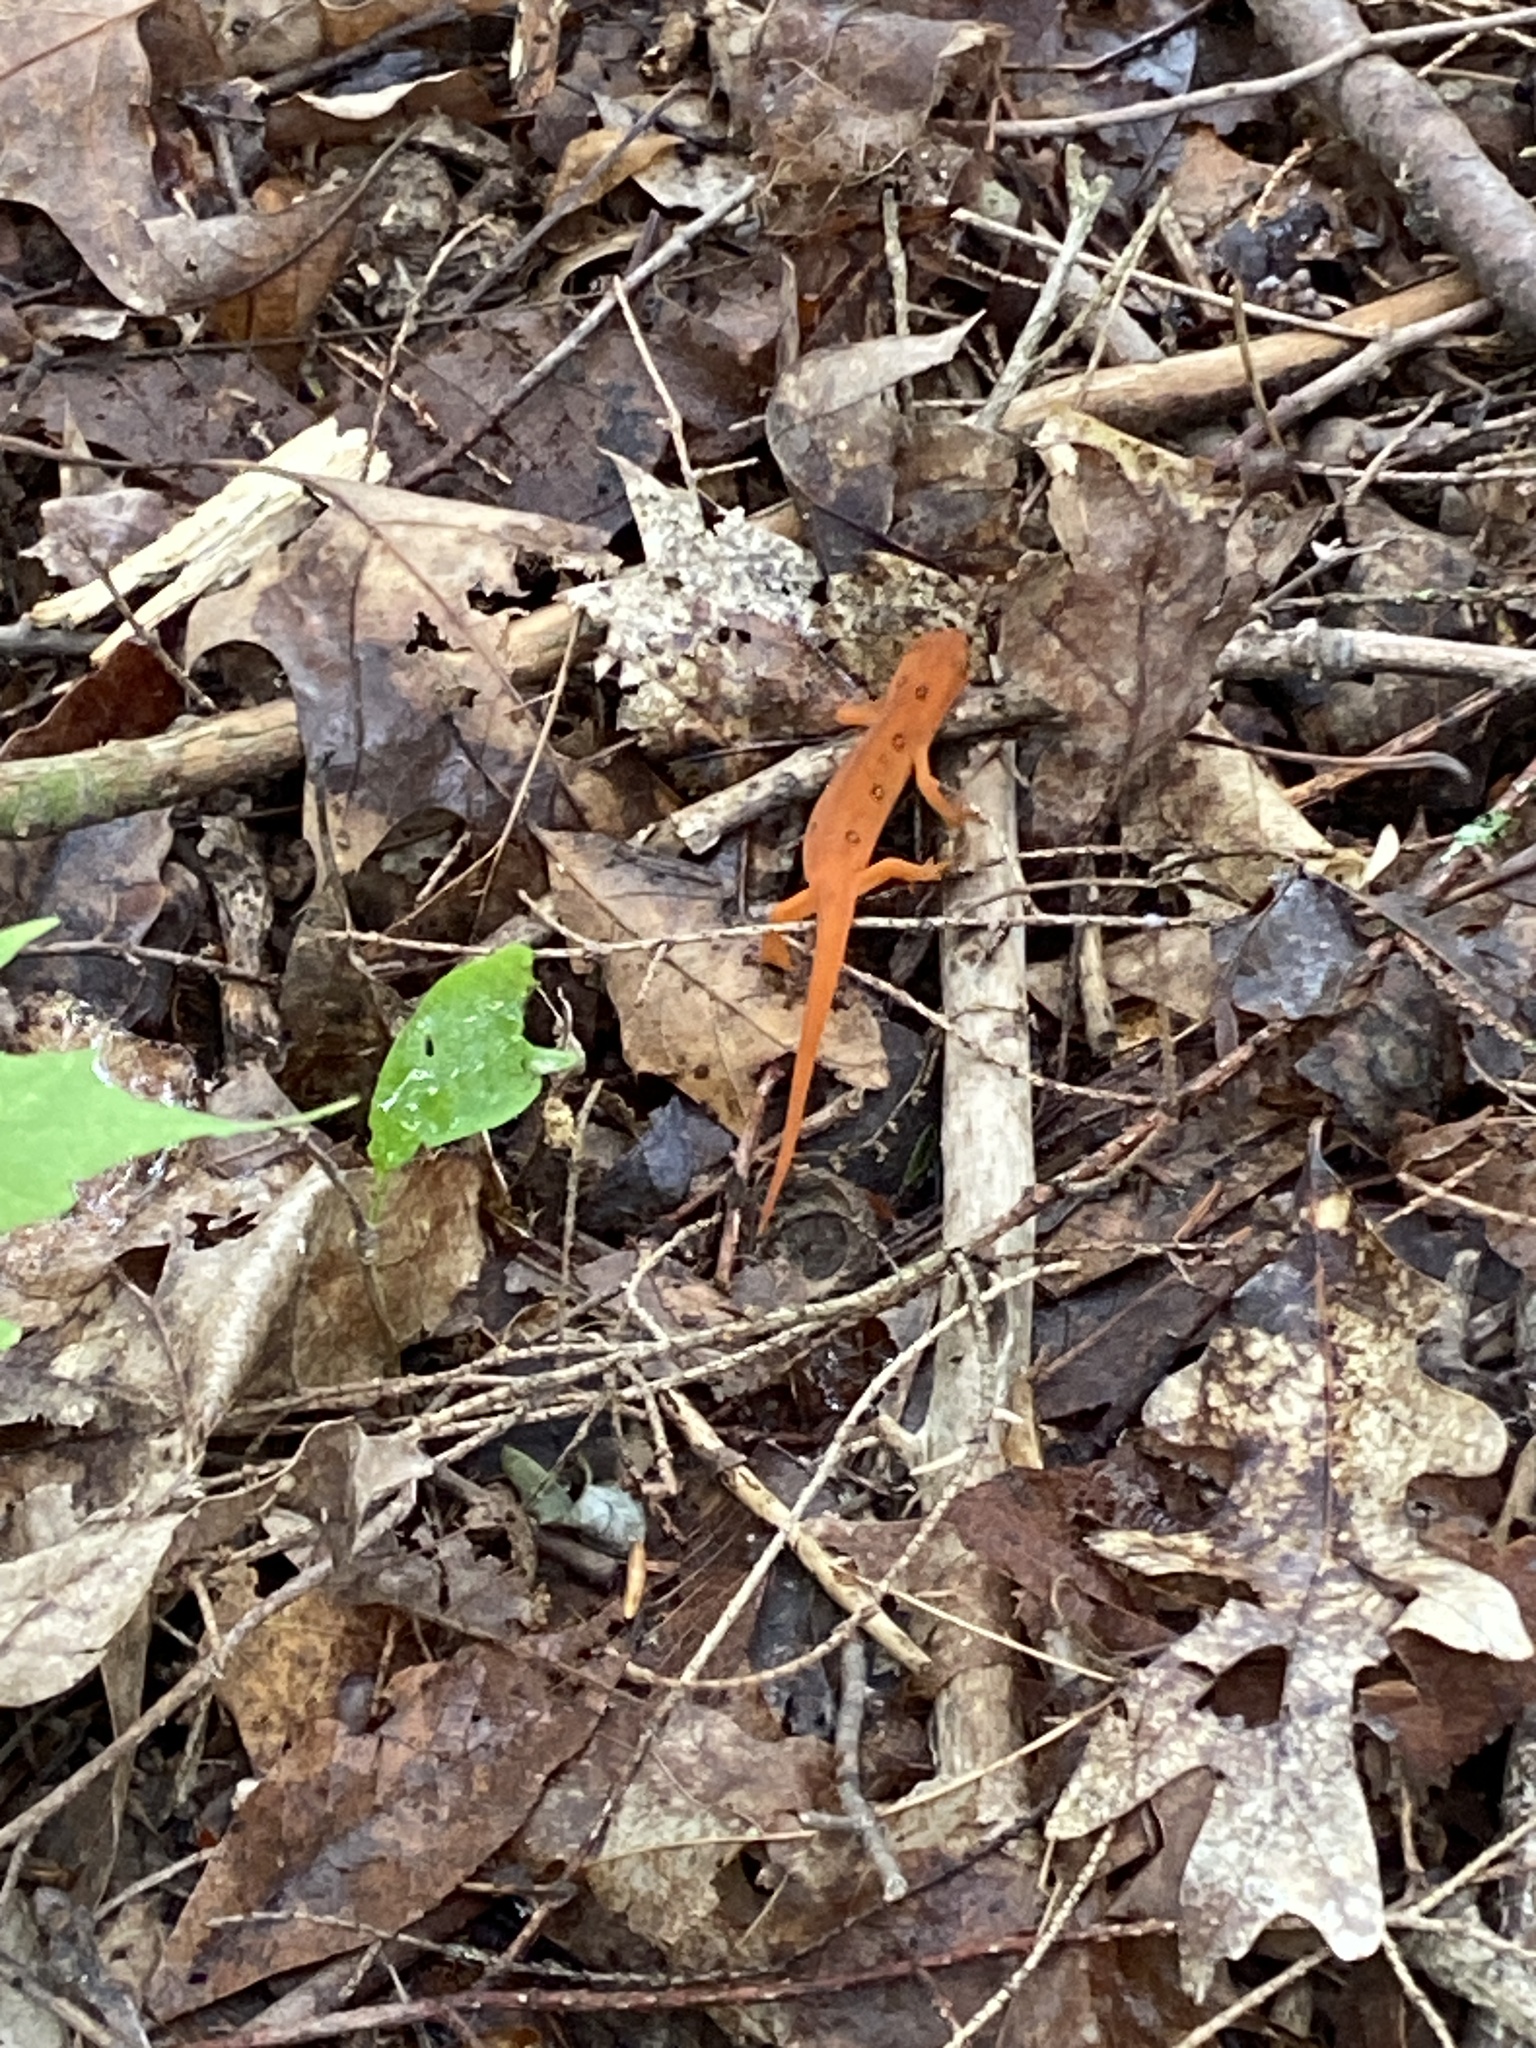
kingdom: Animalia
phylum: Chordata
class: Amphibia
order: Caudata
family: Salamandridae
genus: Notophthalmus
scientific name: Notophthalmus viridescens
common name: Eastern newt
